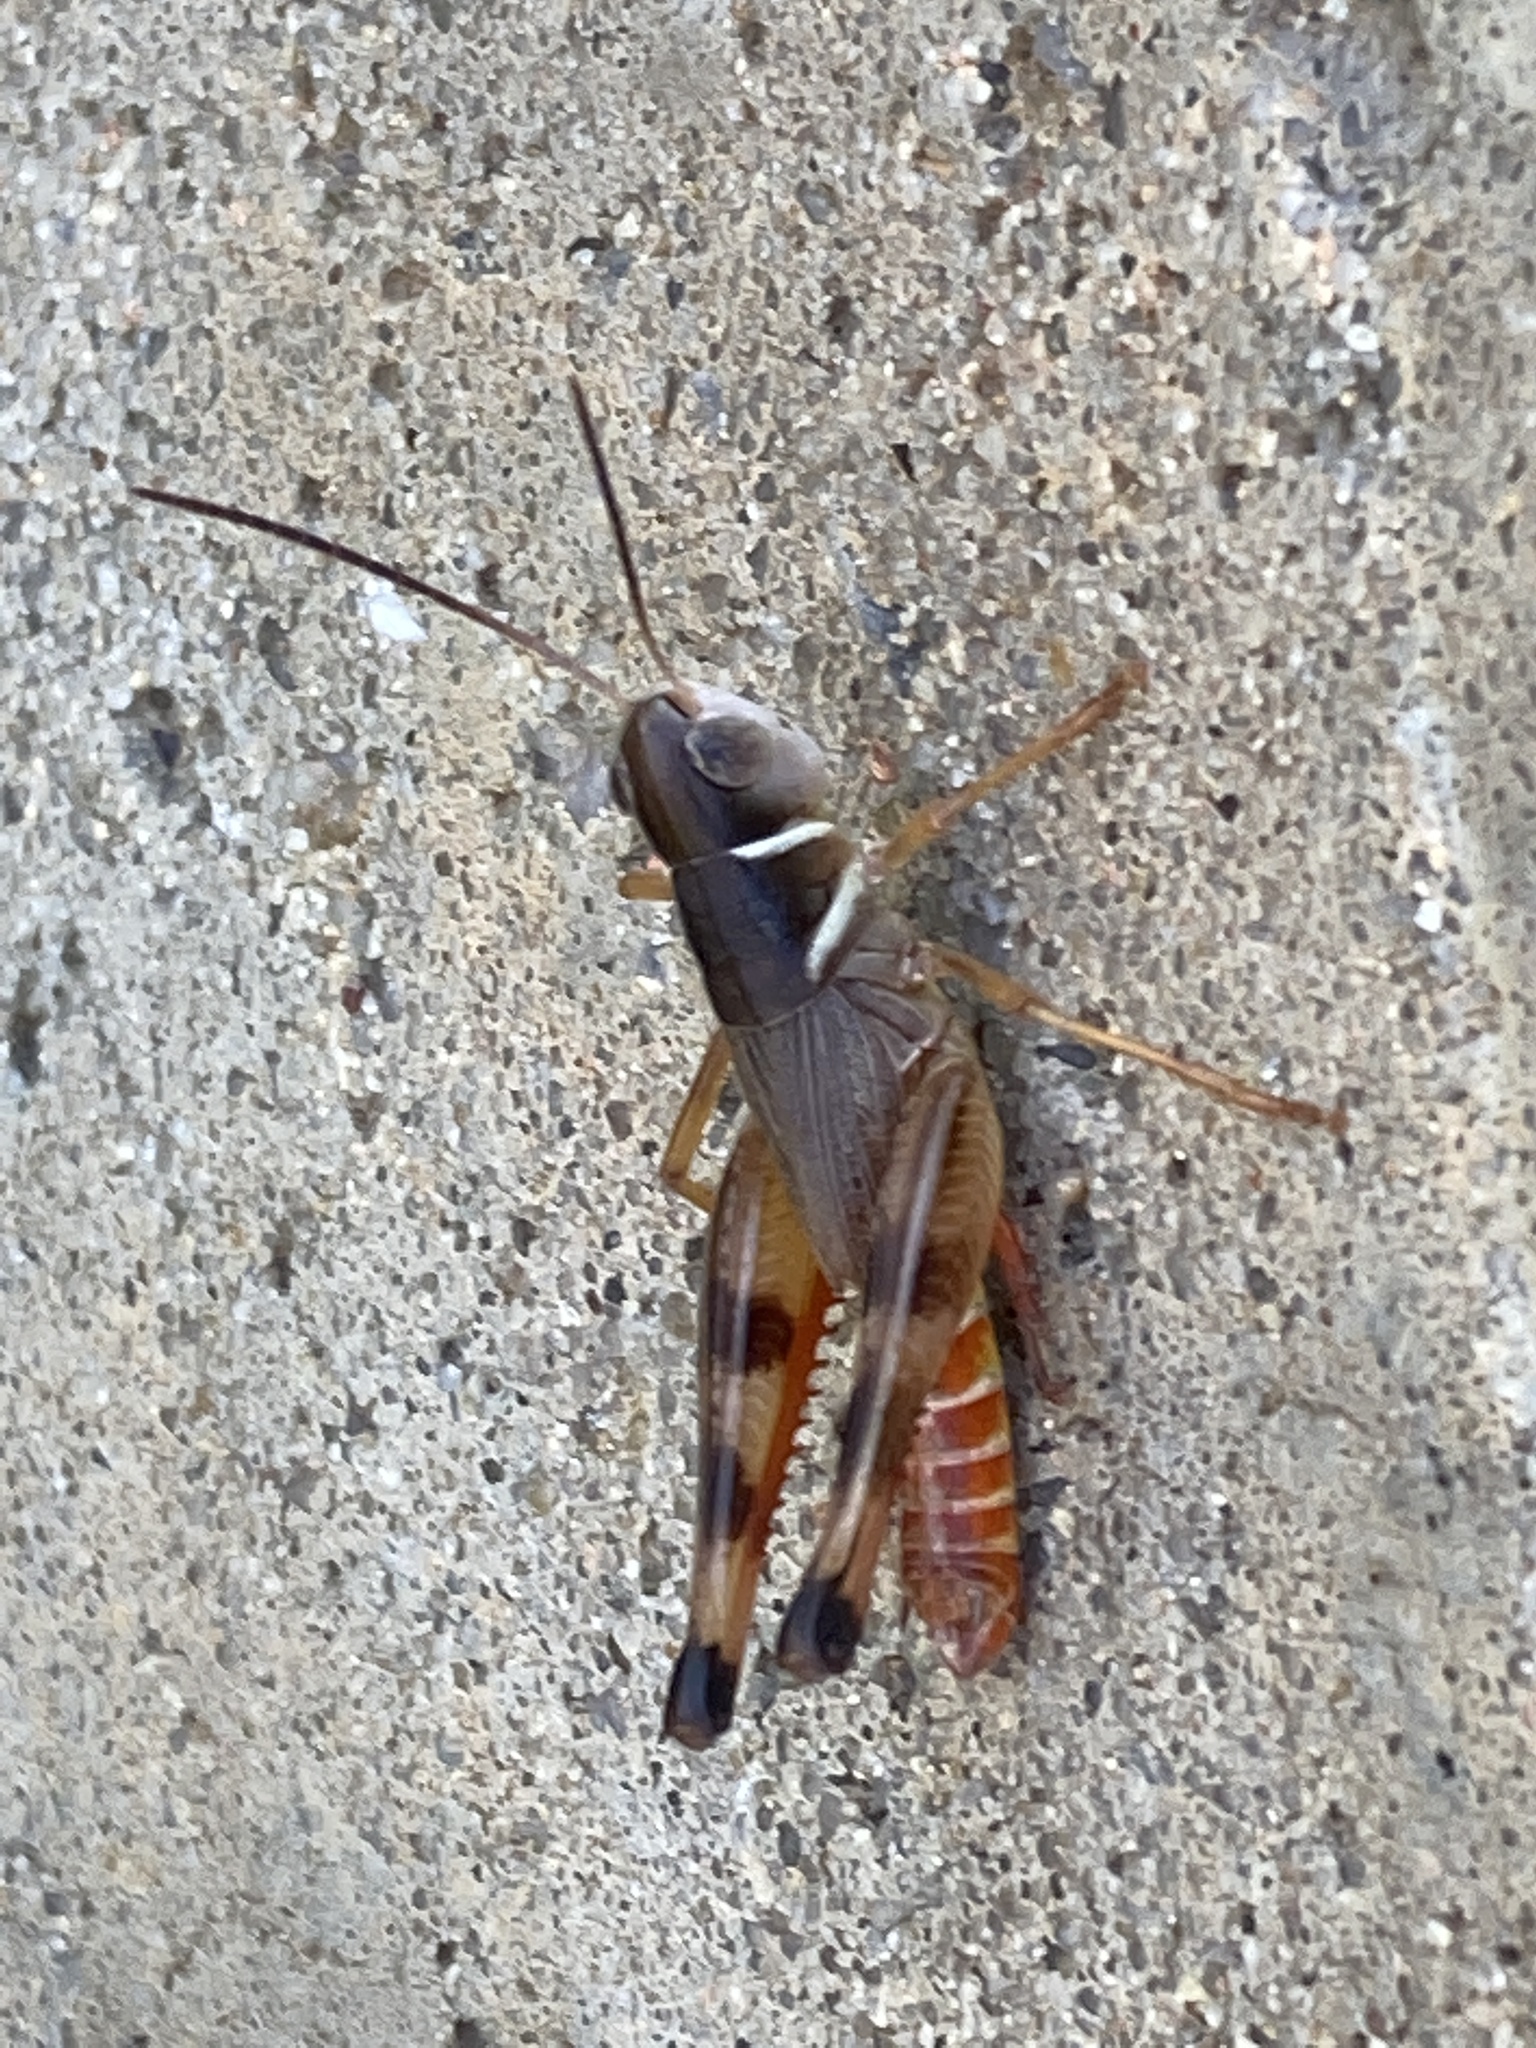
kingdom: Animalia
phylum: Arthropoda
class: Insecta
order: Orthoptera
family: Acrididae
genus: Boopedon
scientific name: Boopedon auriventris
